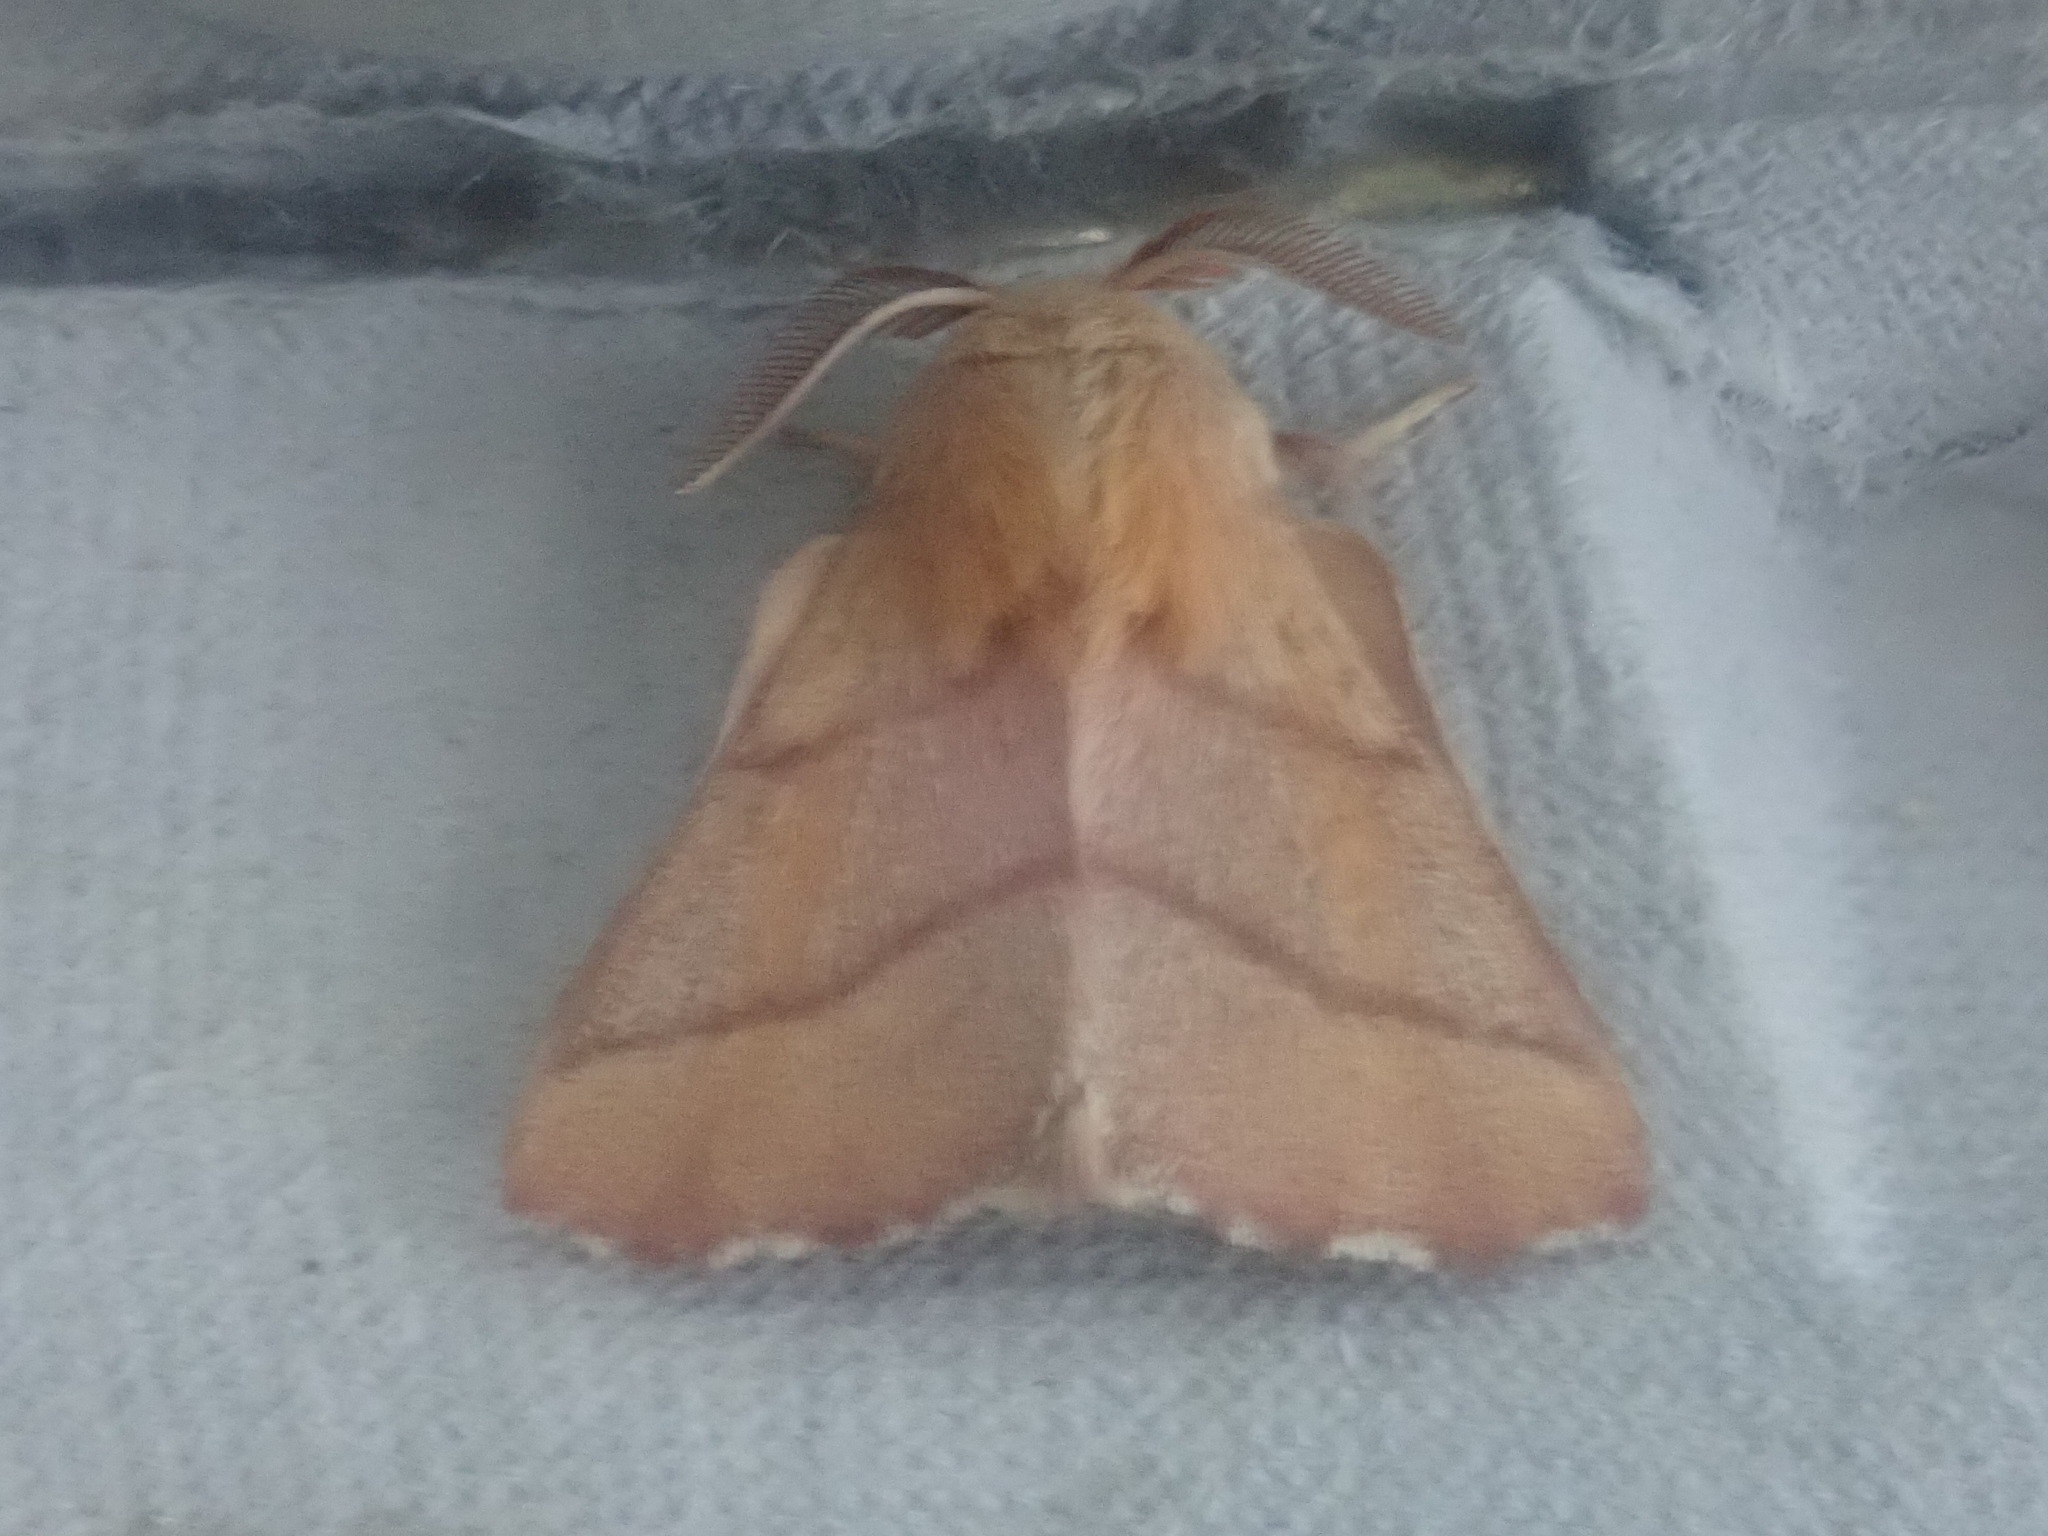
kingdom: Animalia
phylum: Arthropoda
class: Insecta
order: Lepidoptera
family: Lasiocampidae
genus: Malacosoma
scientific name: Malacosoma disstria
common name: Forest tent caterpillar
